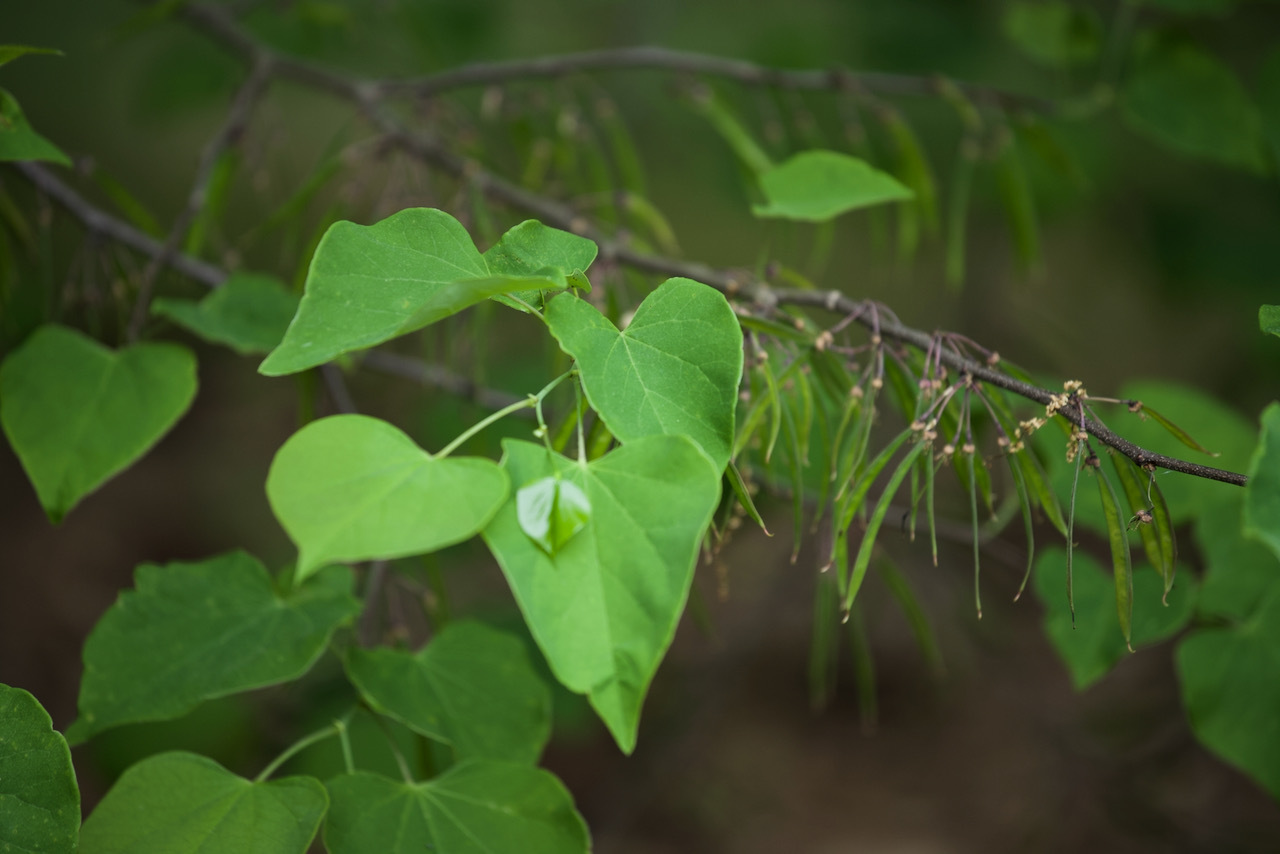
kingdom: Plantae
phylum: Tracheophyta
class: Magnoliopsida
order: Fabales
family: Fabaceae
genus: Cercis
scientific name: Cercis canadensis
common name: Eastern redbud
